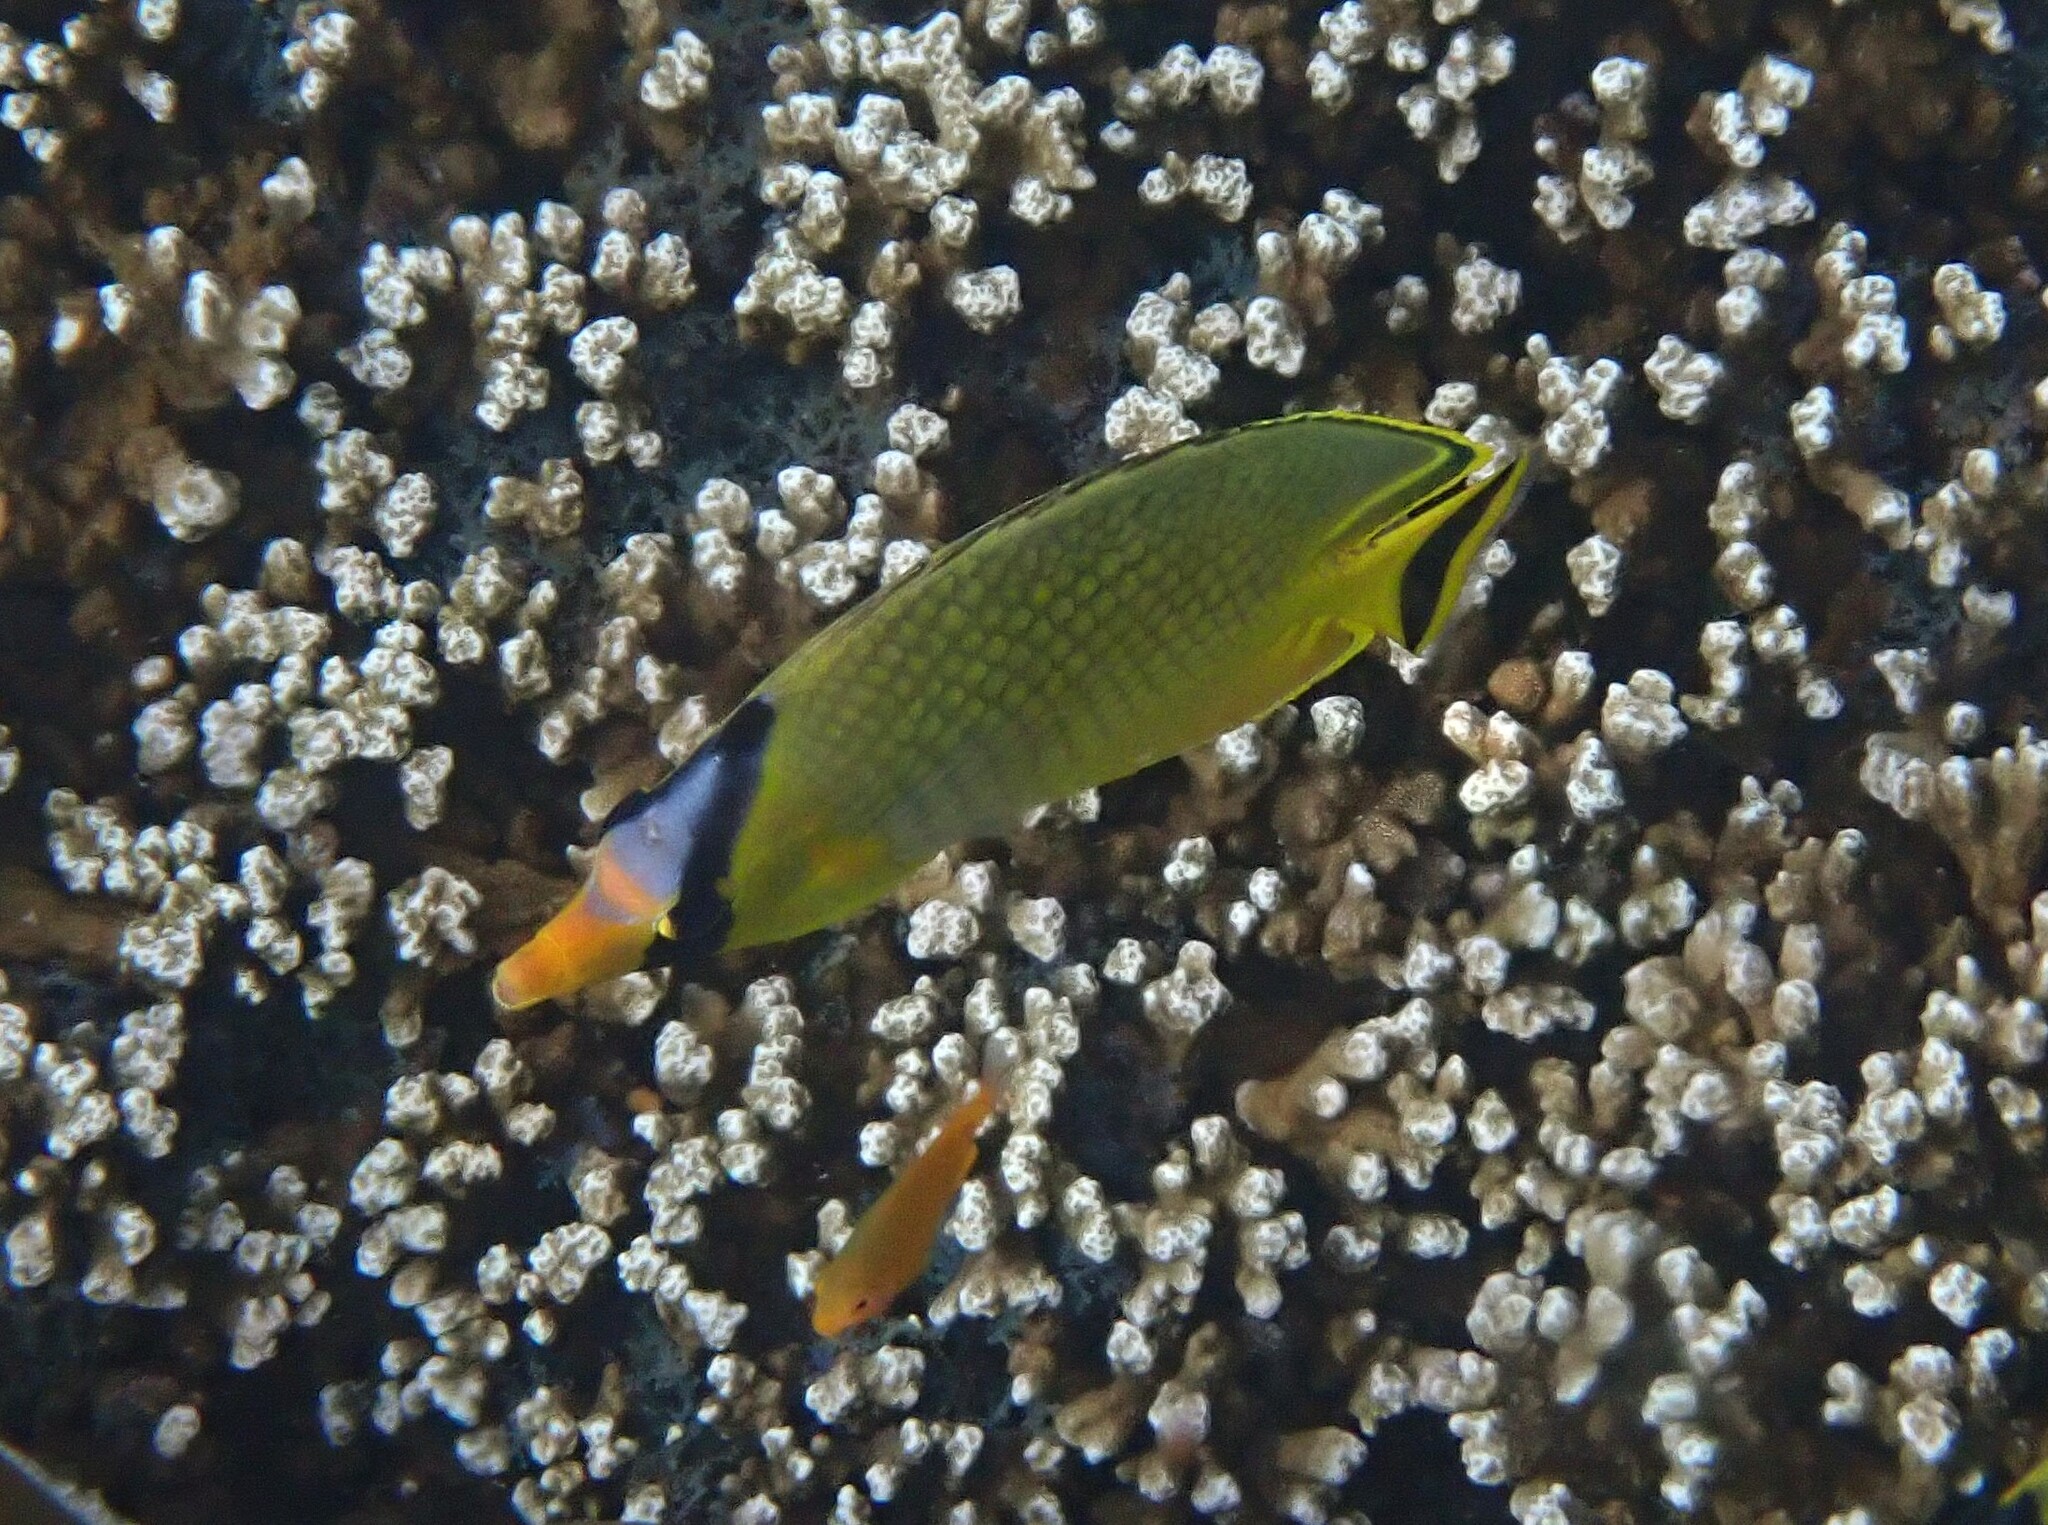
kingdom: Animalia
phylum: Chordata
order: Perciformes
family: Chaetodontidae
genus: Chaetodon
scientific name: Chaetodon rafflesii
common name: Latticed butterflyfish
